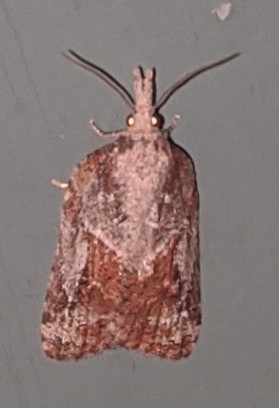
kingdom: Animalia
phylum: Arthropoda
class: Insecta
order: Lepidoptera
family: Tortricidae
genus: Platynota
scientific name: Platynota idaeusalis
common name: Tufted apple bud moth
